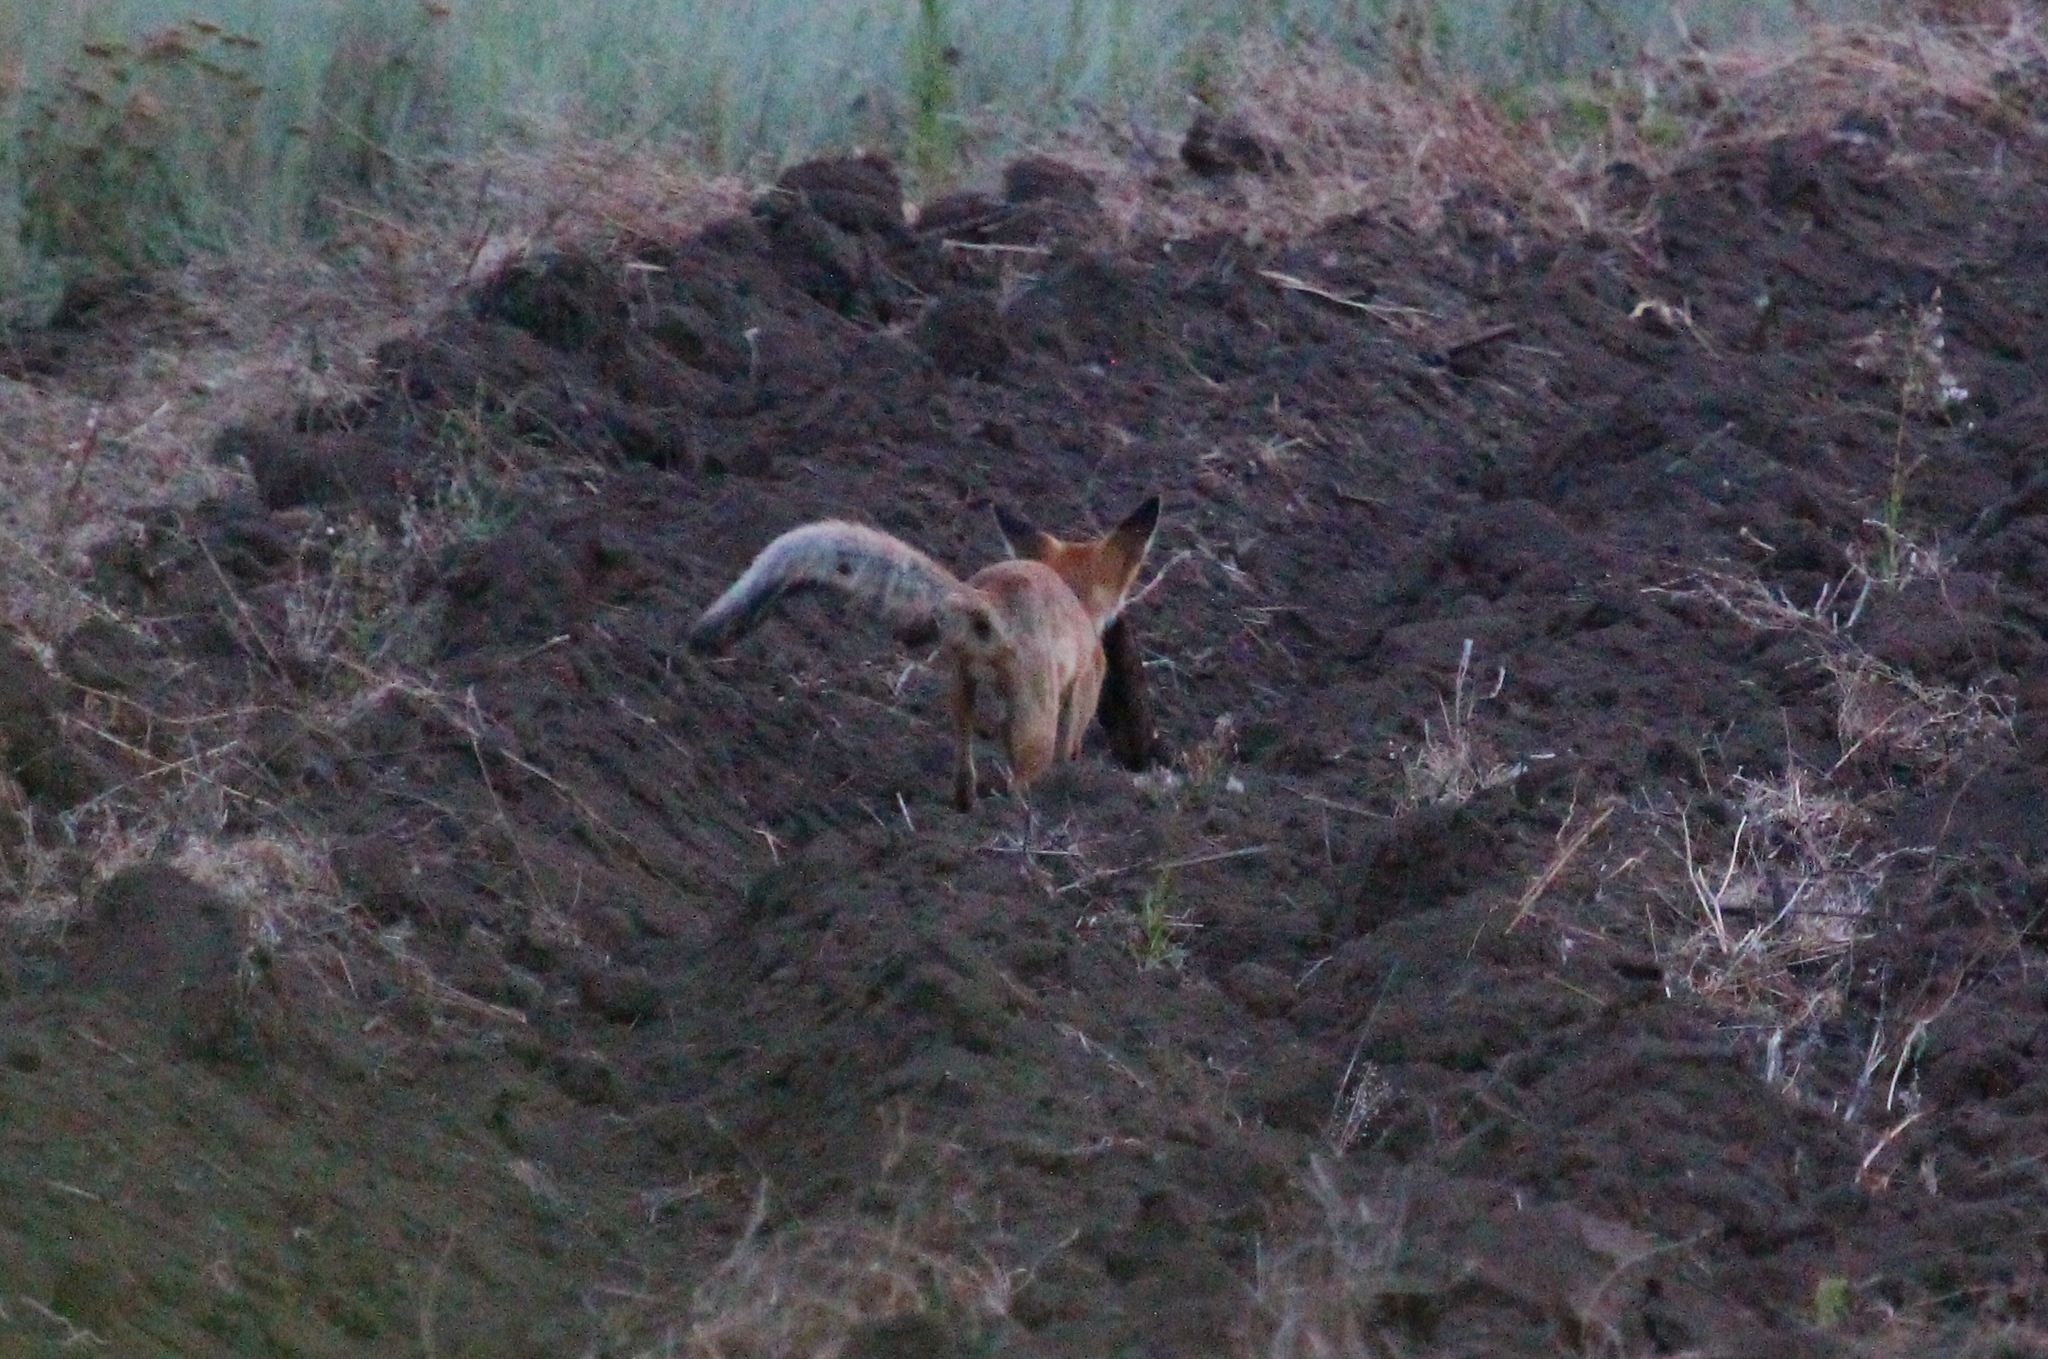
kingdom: Animalia
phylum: Chordata
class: Mammalia
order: Carnivora
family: Canidae
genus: Vulpes
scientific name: Vulpes vulpes
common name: Red fox
